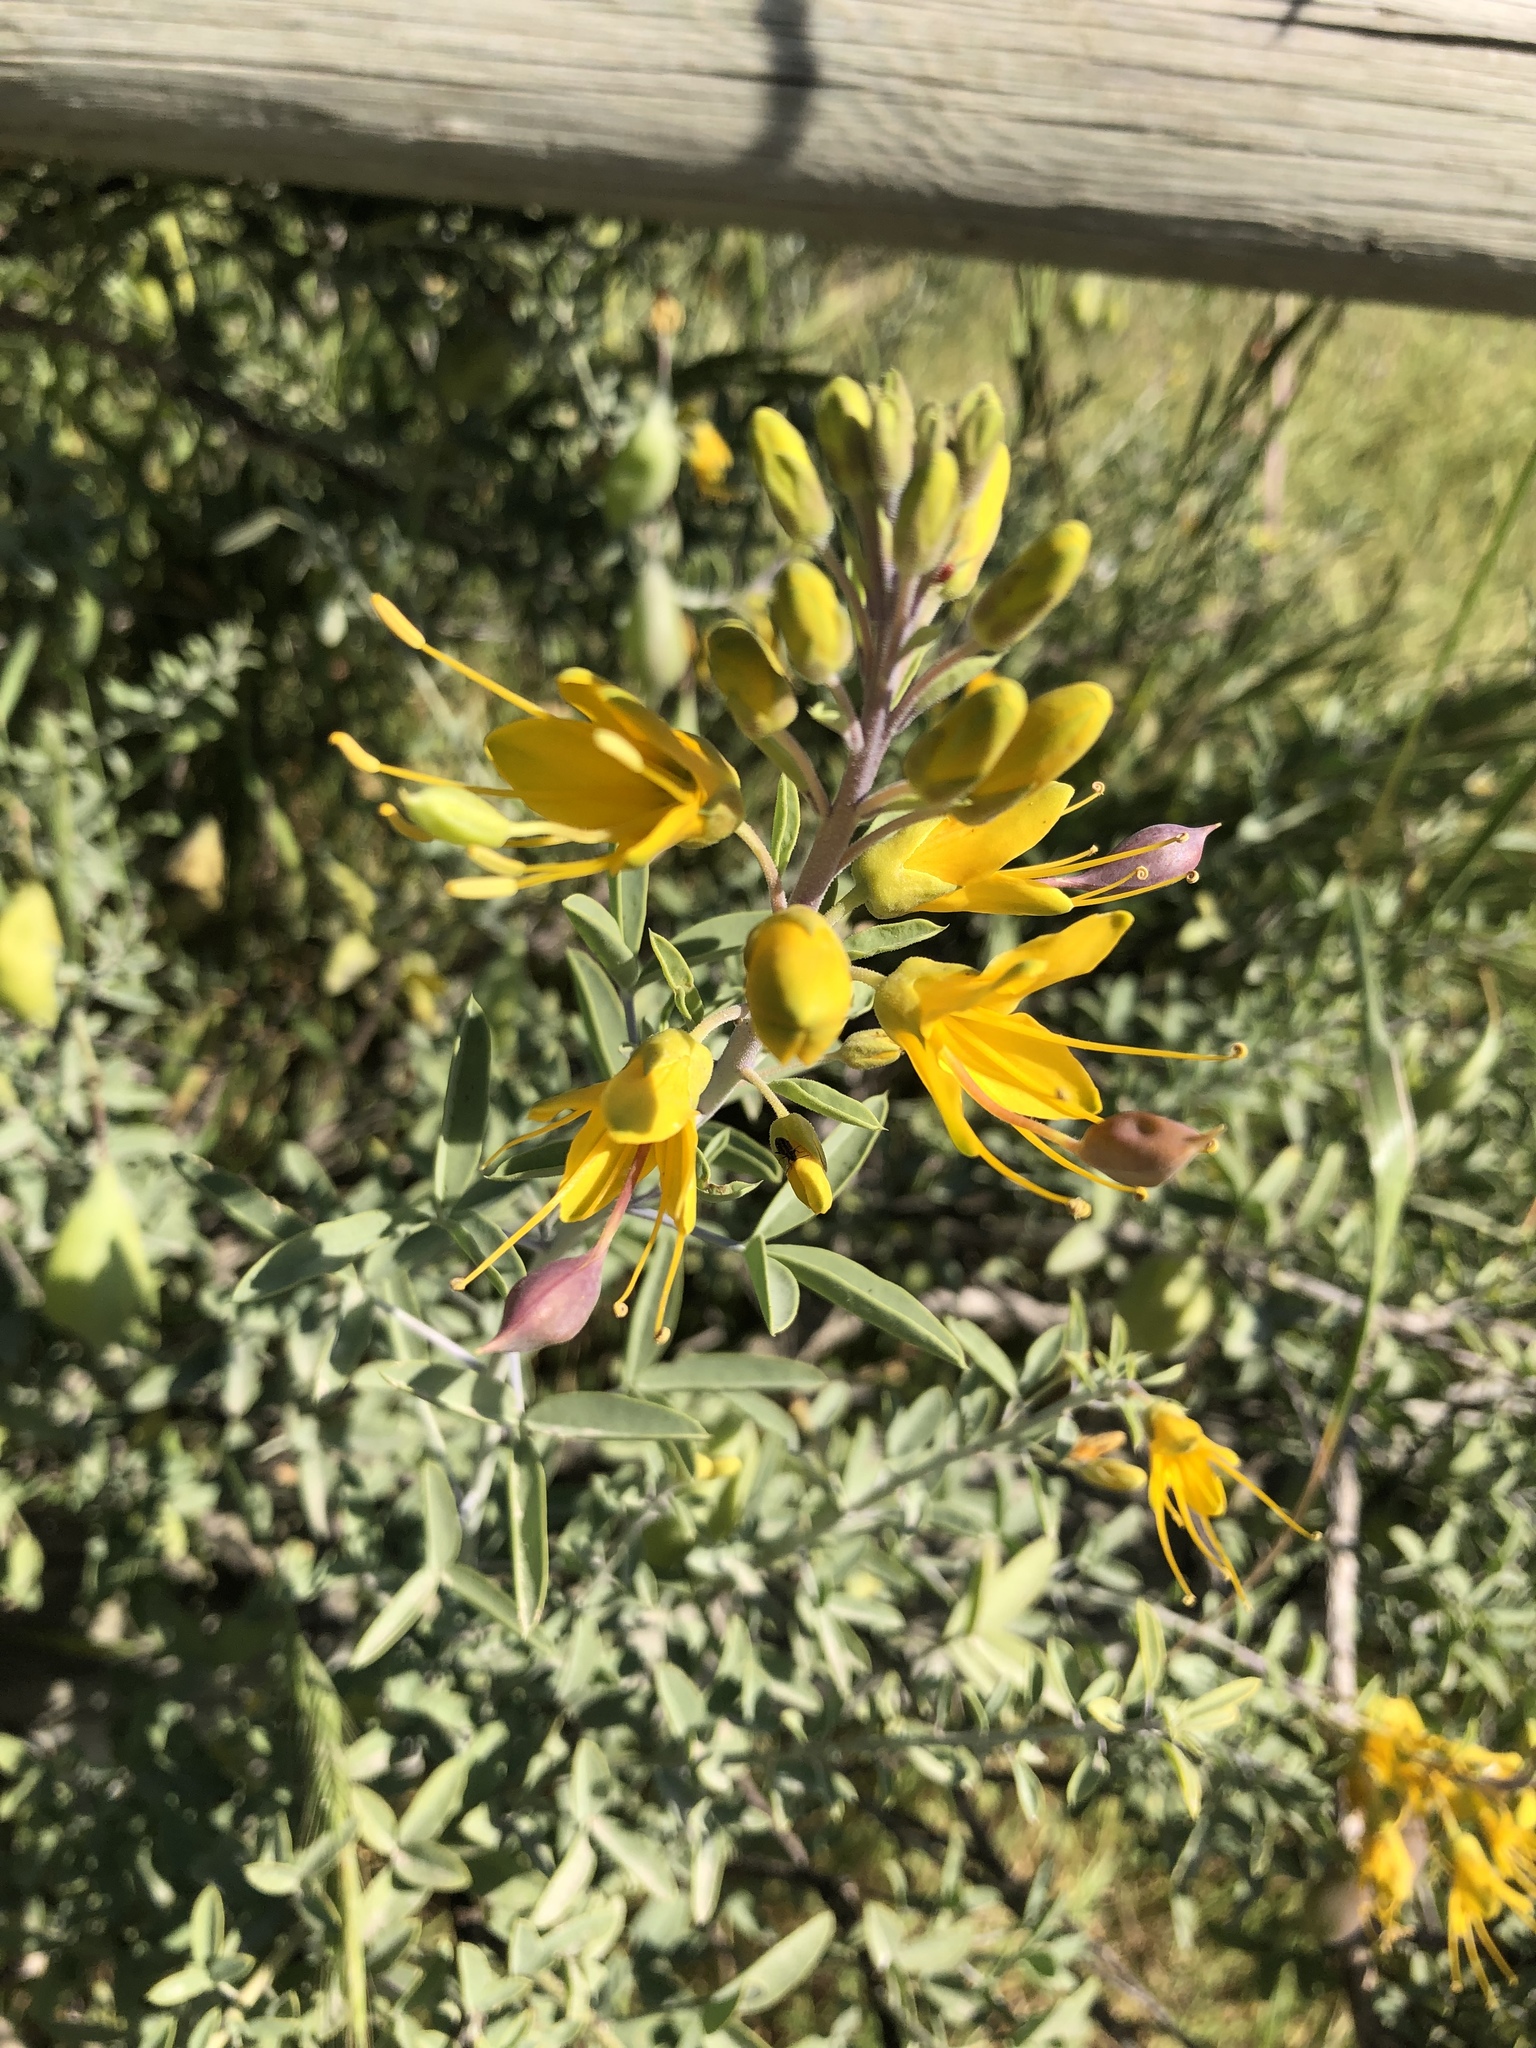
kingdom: Plantae
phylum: Tracheophyta
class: Magnoliopsida
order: Brassicales
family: Cleomaceae
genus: Cleomella
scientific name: Cleomella arborea
